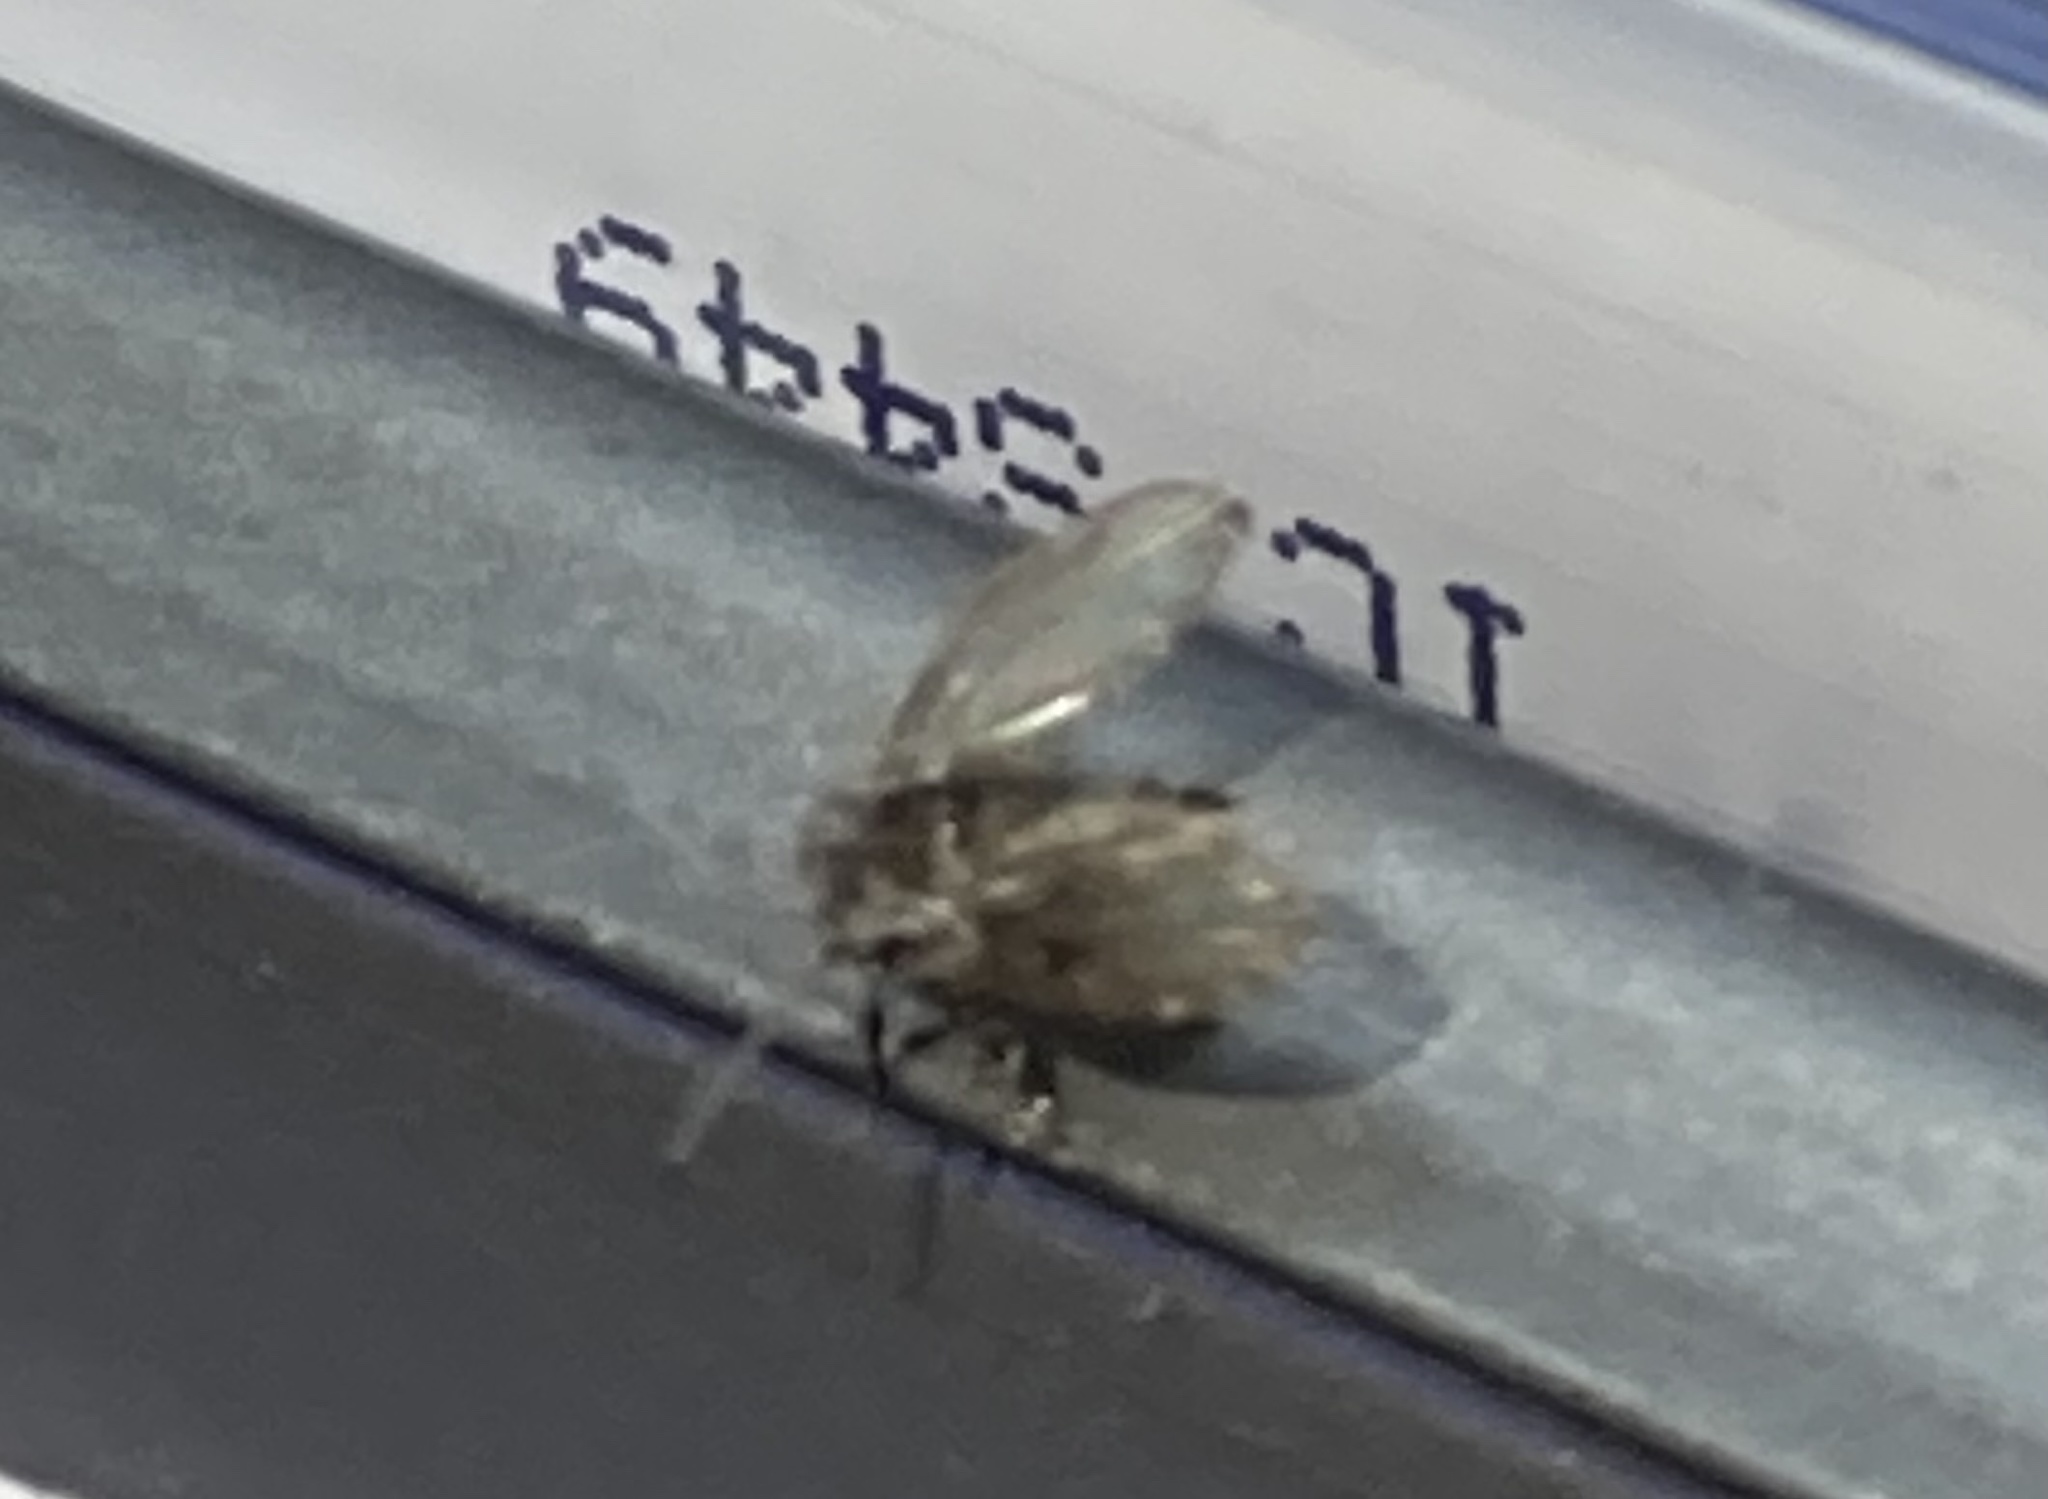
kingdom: Animalia
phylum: Arthropoda
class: Insecta
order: Diptera
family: Psychodidae
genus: Clogmia
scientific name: Clogmia albipunctatus
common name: White-spotted moth fly
